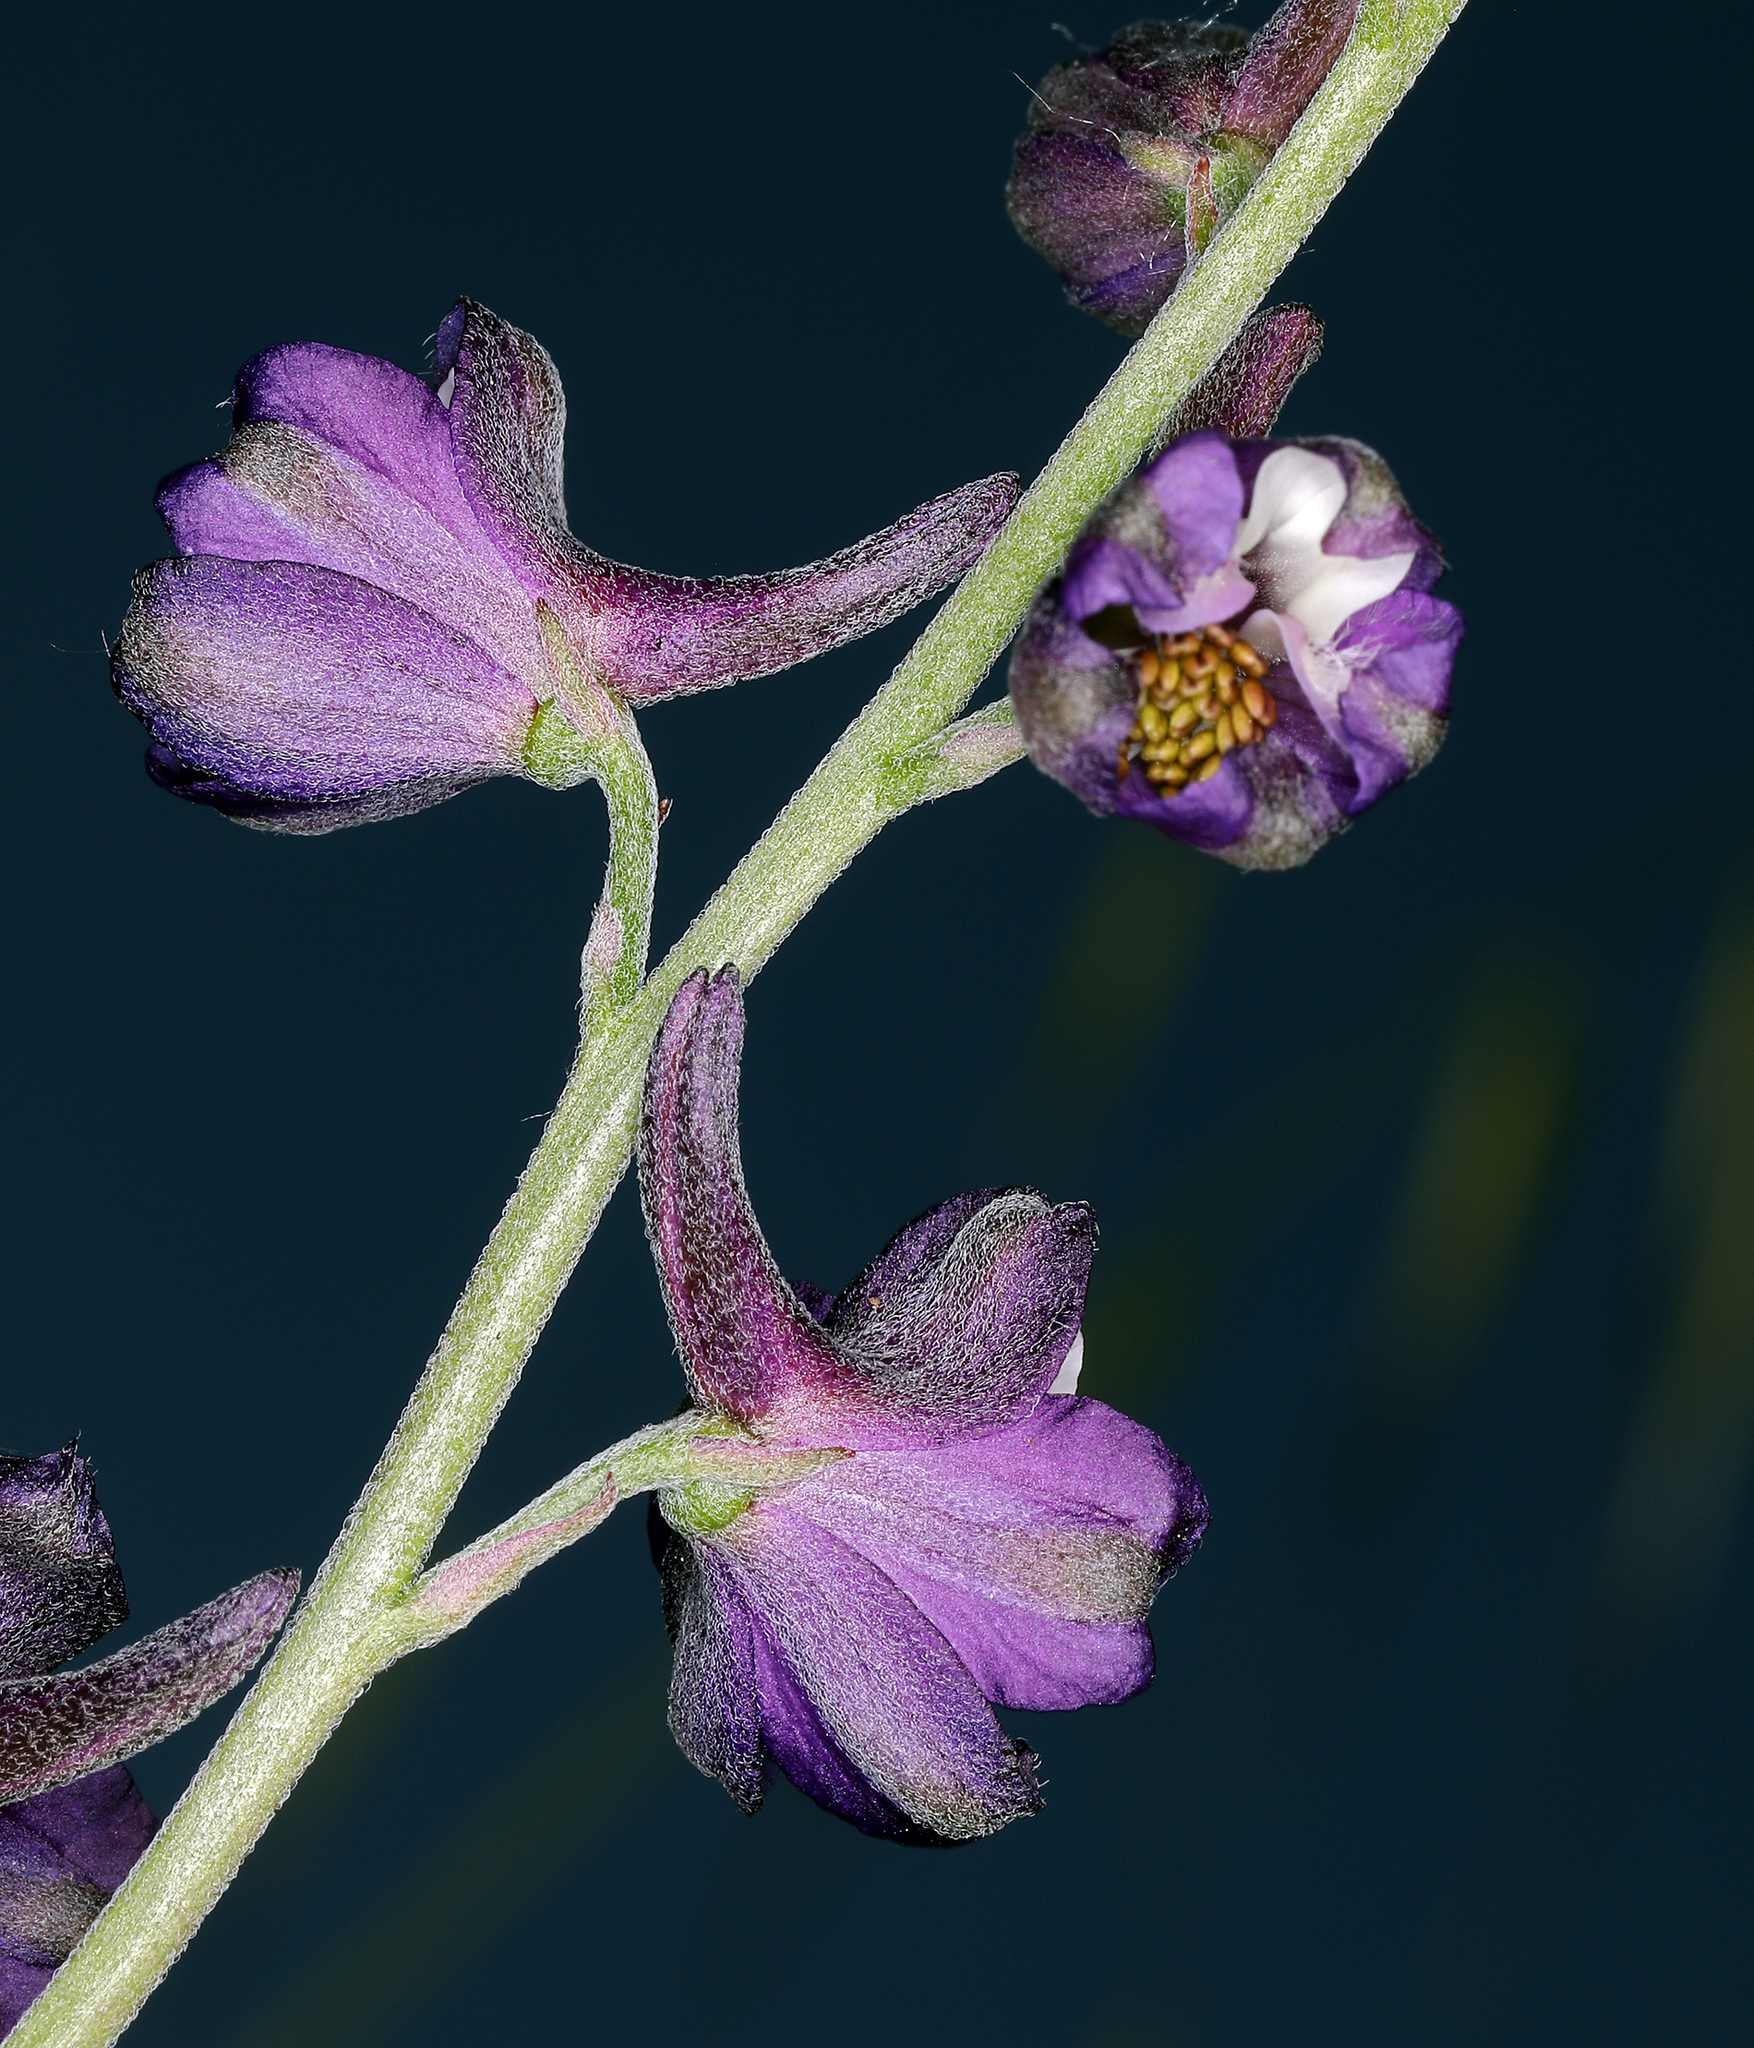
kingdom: Plantae
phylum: Tracheophyta
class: Magnoliopsida
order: Ranunculales
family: Ranunculaceae
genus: Delphinium
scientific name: Delphinium hansenii
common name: Hansen's larkspur
